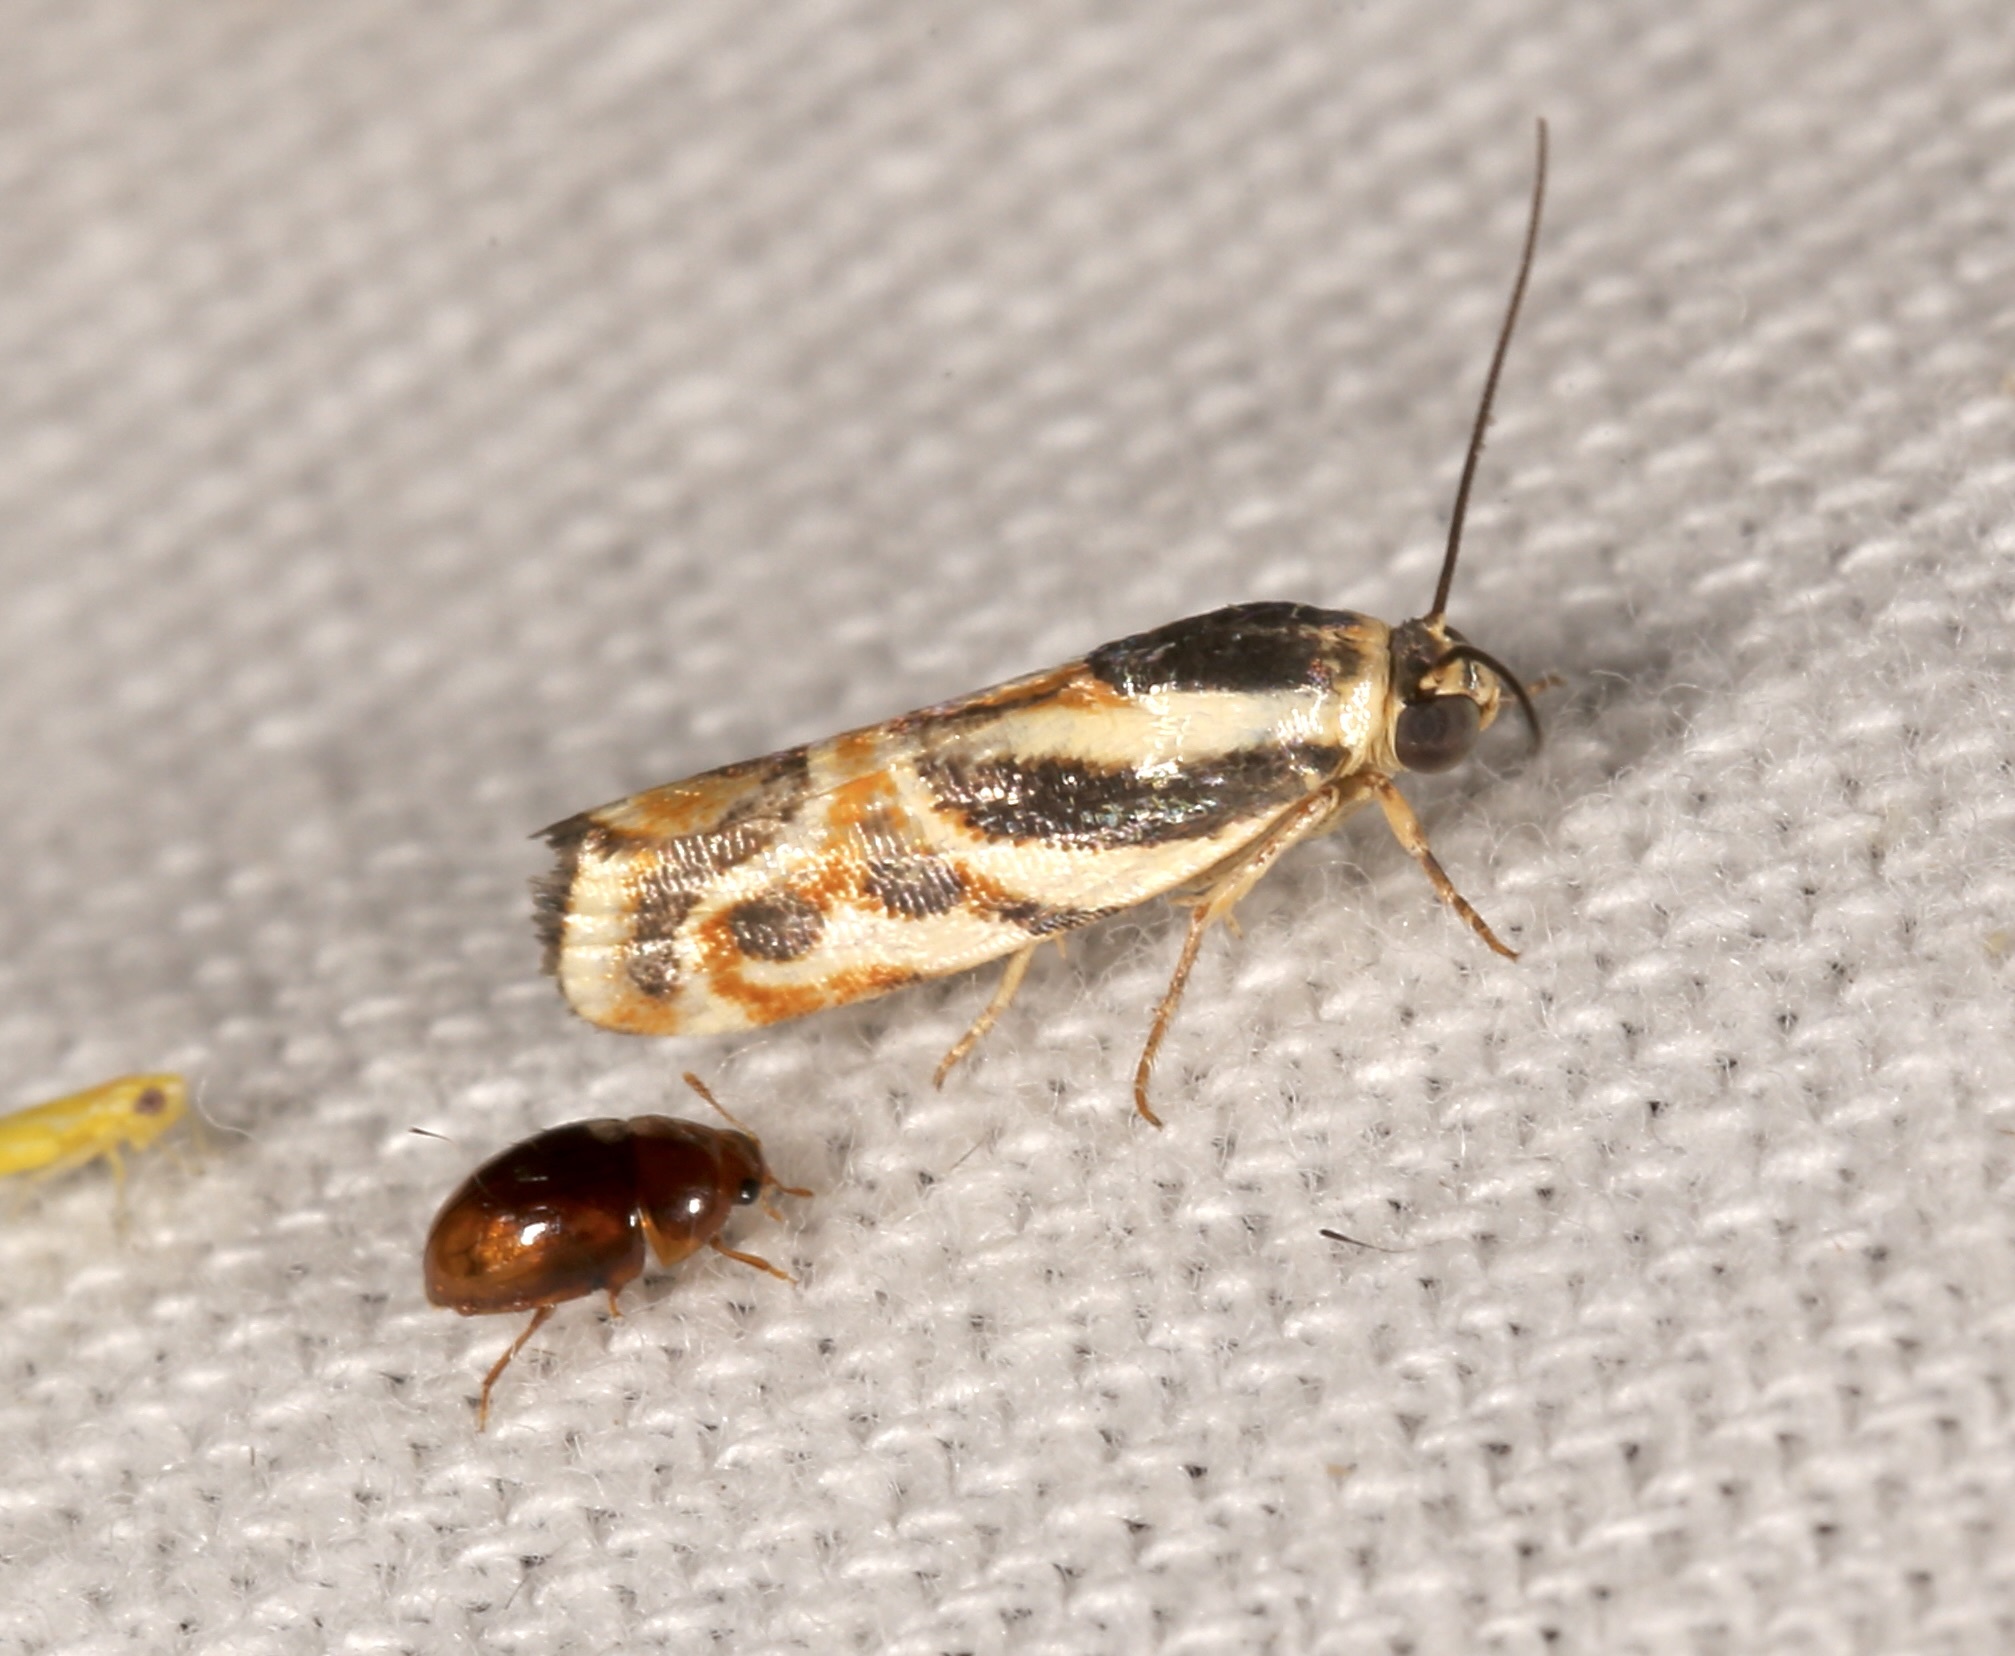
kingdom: Animalia
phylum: Arthropoda
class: Insecta
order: Lepidoptera
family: Noctuidae
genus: Spragueia
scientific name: Spragueia magnifica
